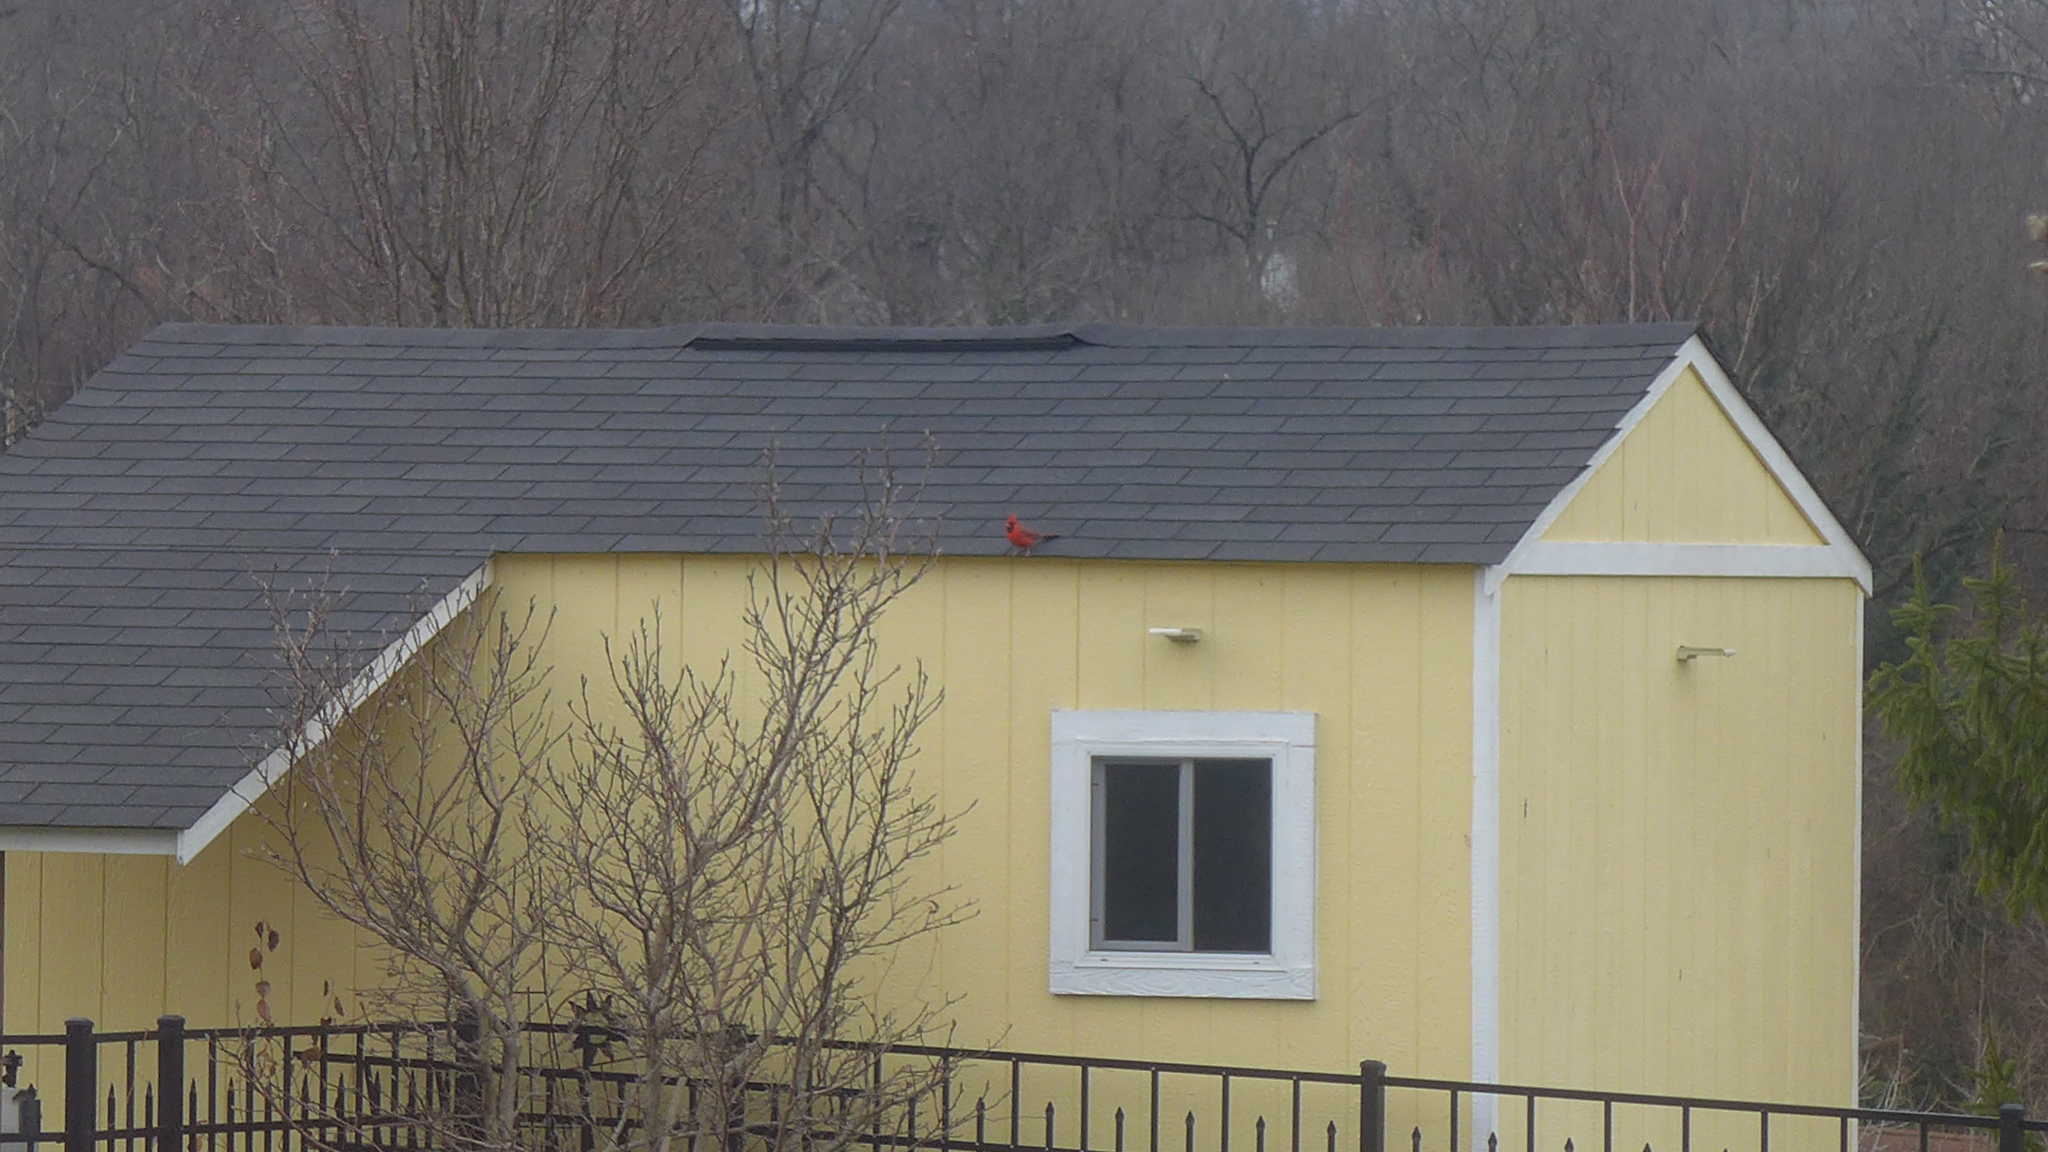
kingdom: Animalia
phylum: Chordata
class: Aves
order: Passeriformes
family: Cardinalidae
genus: Cardinalis
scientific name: Cardinalis cardinalis
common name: Northern cardinal
